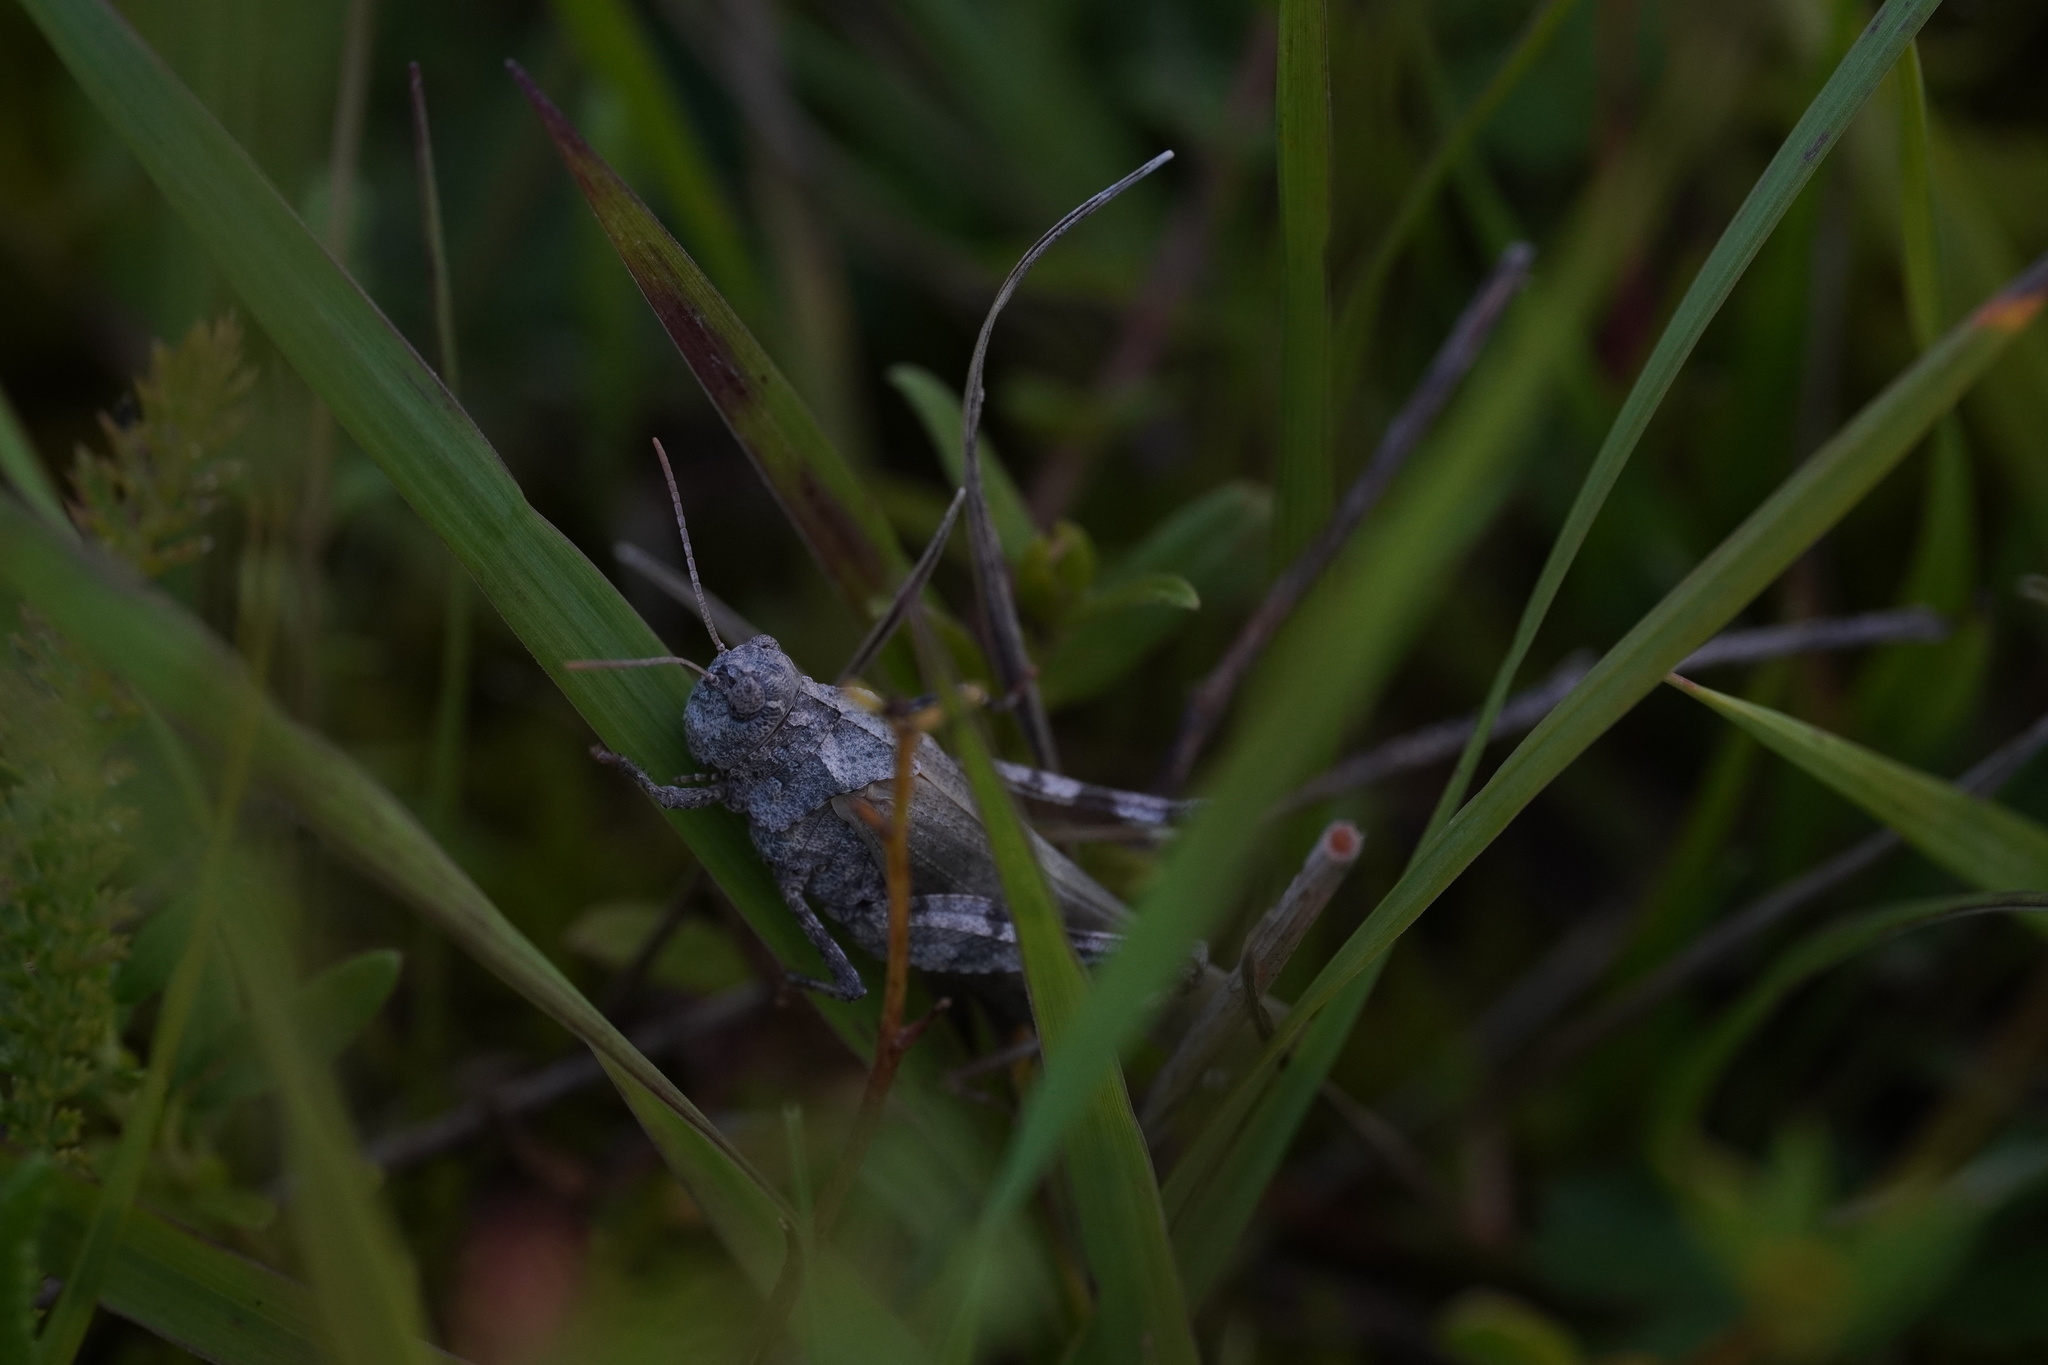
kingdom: Animalia
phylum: Arthropoda
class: Insecta
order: Orthoptera
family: Acrididae
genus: Oedipoda
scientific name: Oedipoda caerulescens
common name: Blue-winged grasshopper
